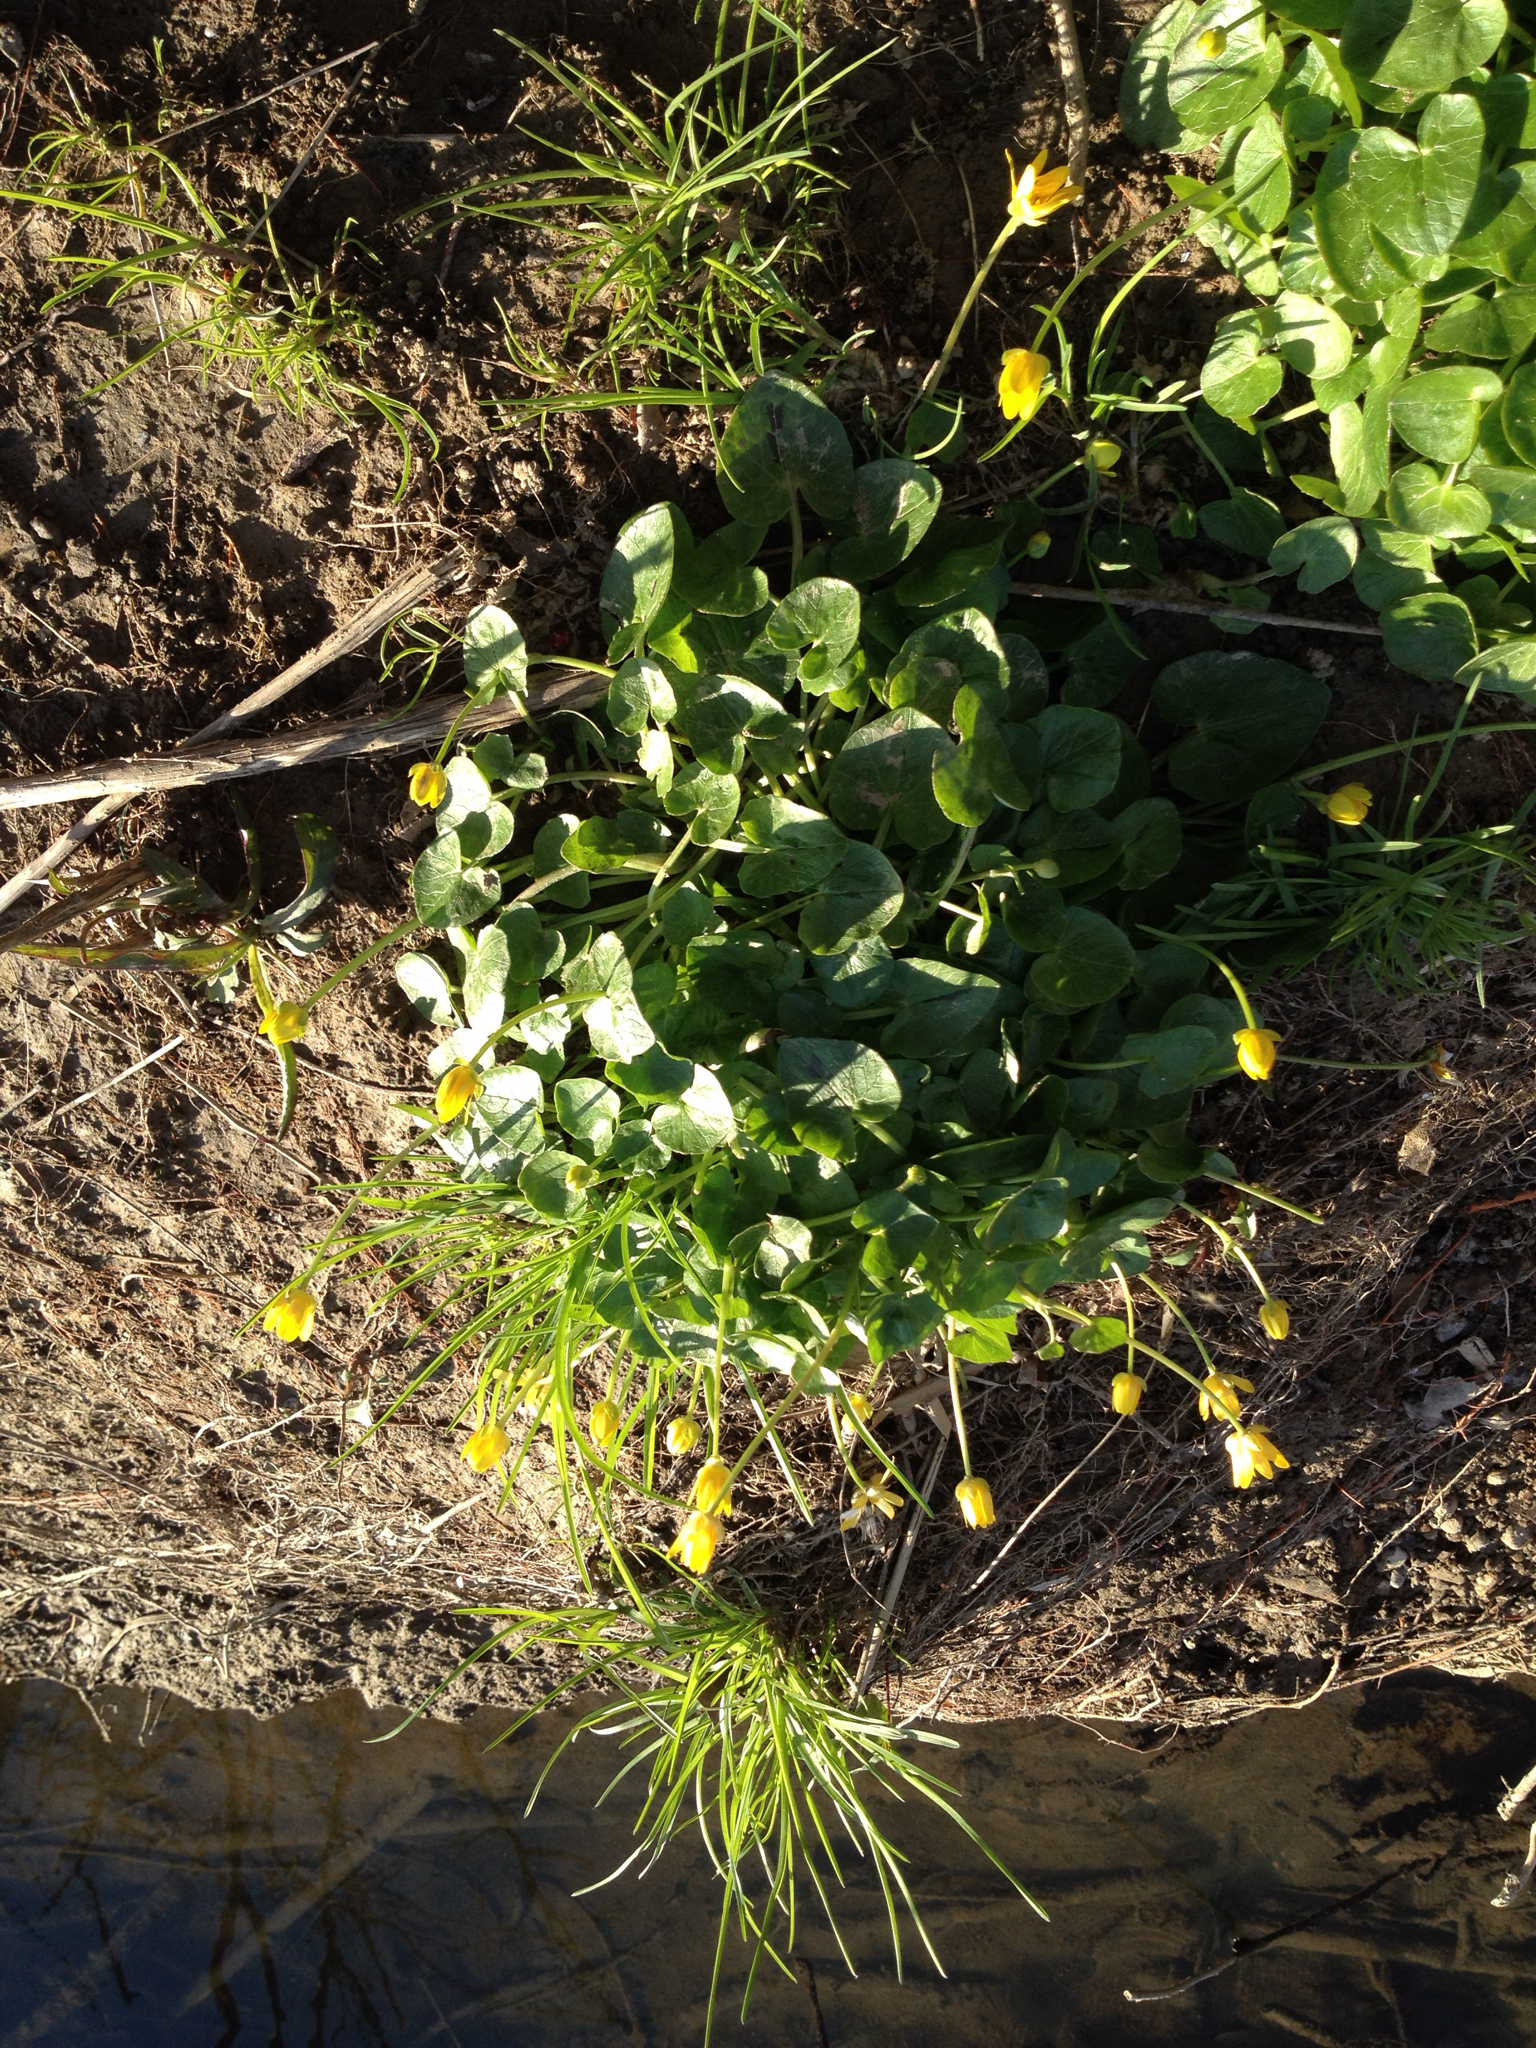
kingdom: Plantae
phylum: Tracheophyta
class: Magnoliopsida
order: Ranunculales
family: Ranunculaceae
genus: Ficaria
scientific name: Ficaria verna
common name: Lesser celandine
